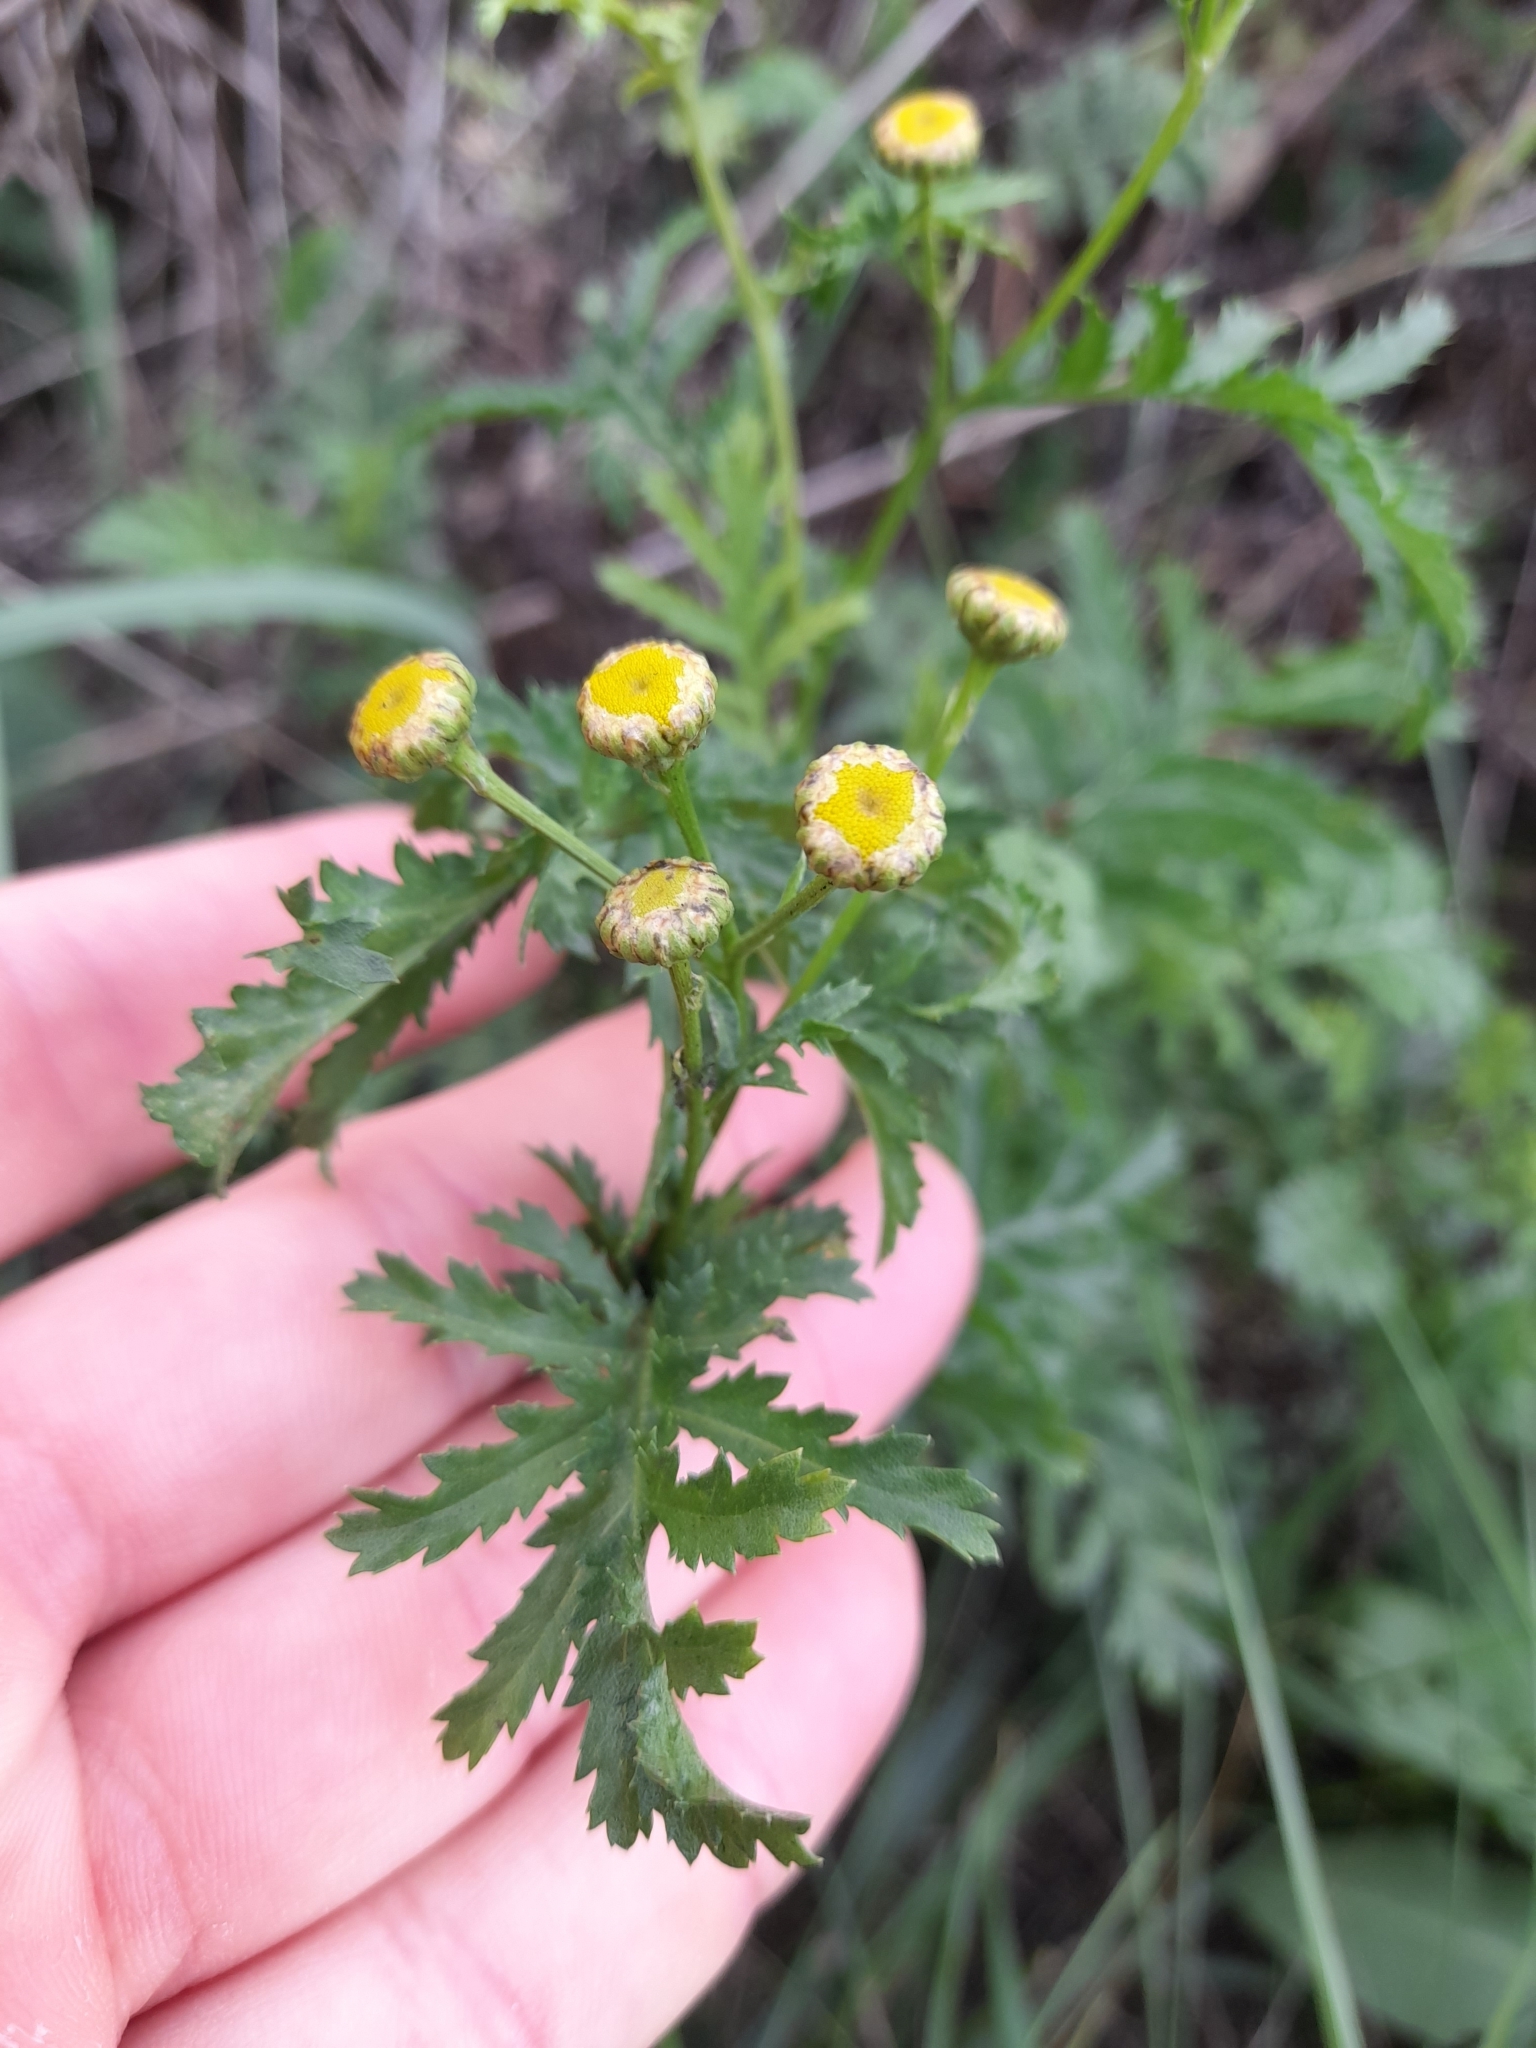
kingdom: Plantae
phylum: Tracheophyta
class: Magnoliopsida
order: Asterales
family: Asteraceae
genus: Tanacetum
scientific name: Tanacetum vulgare
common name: Common tansy
